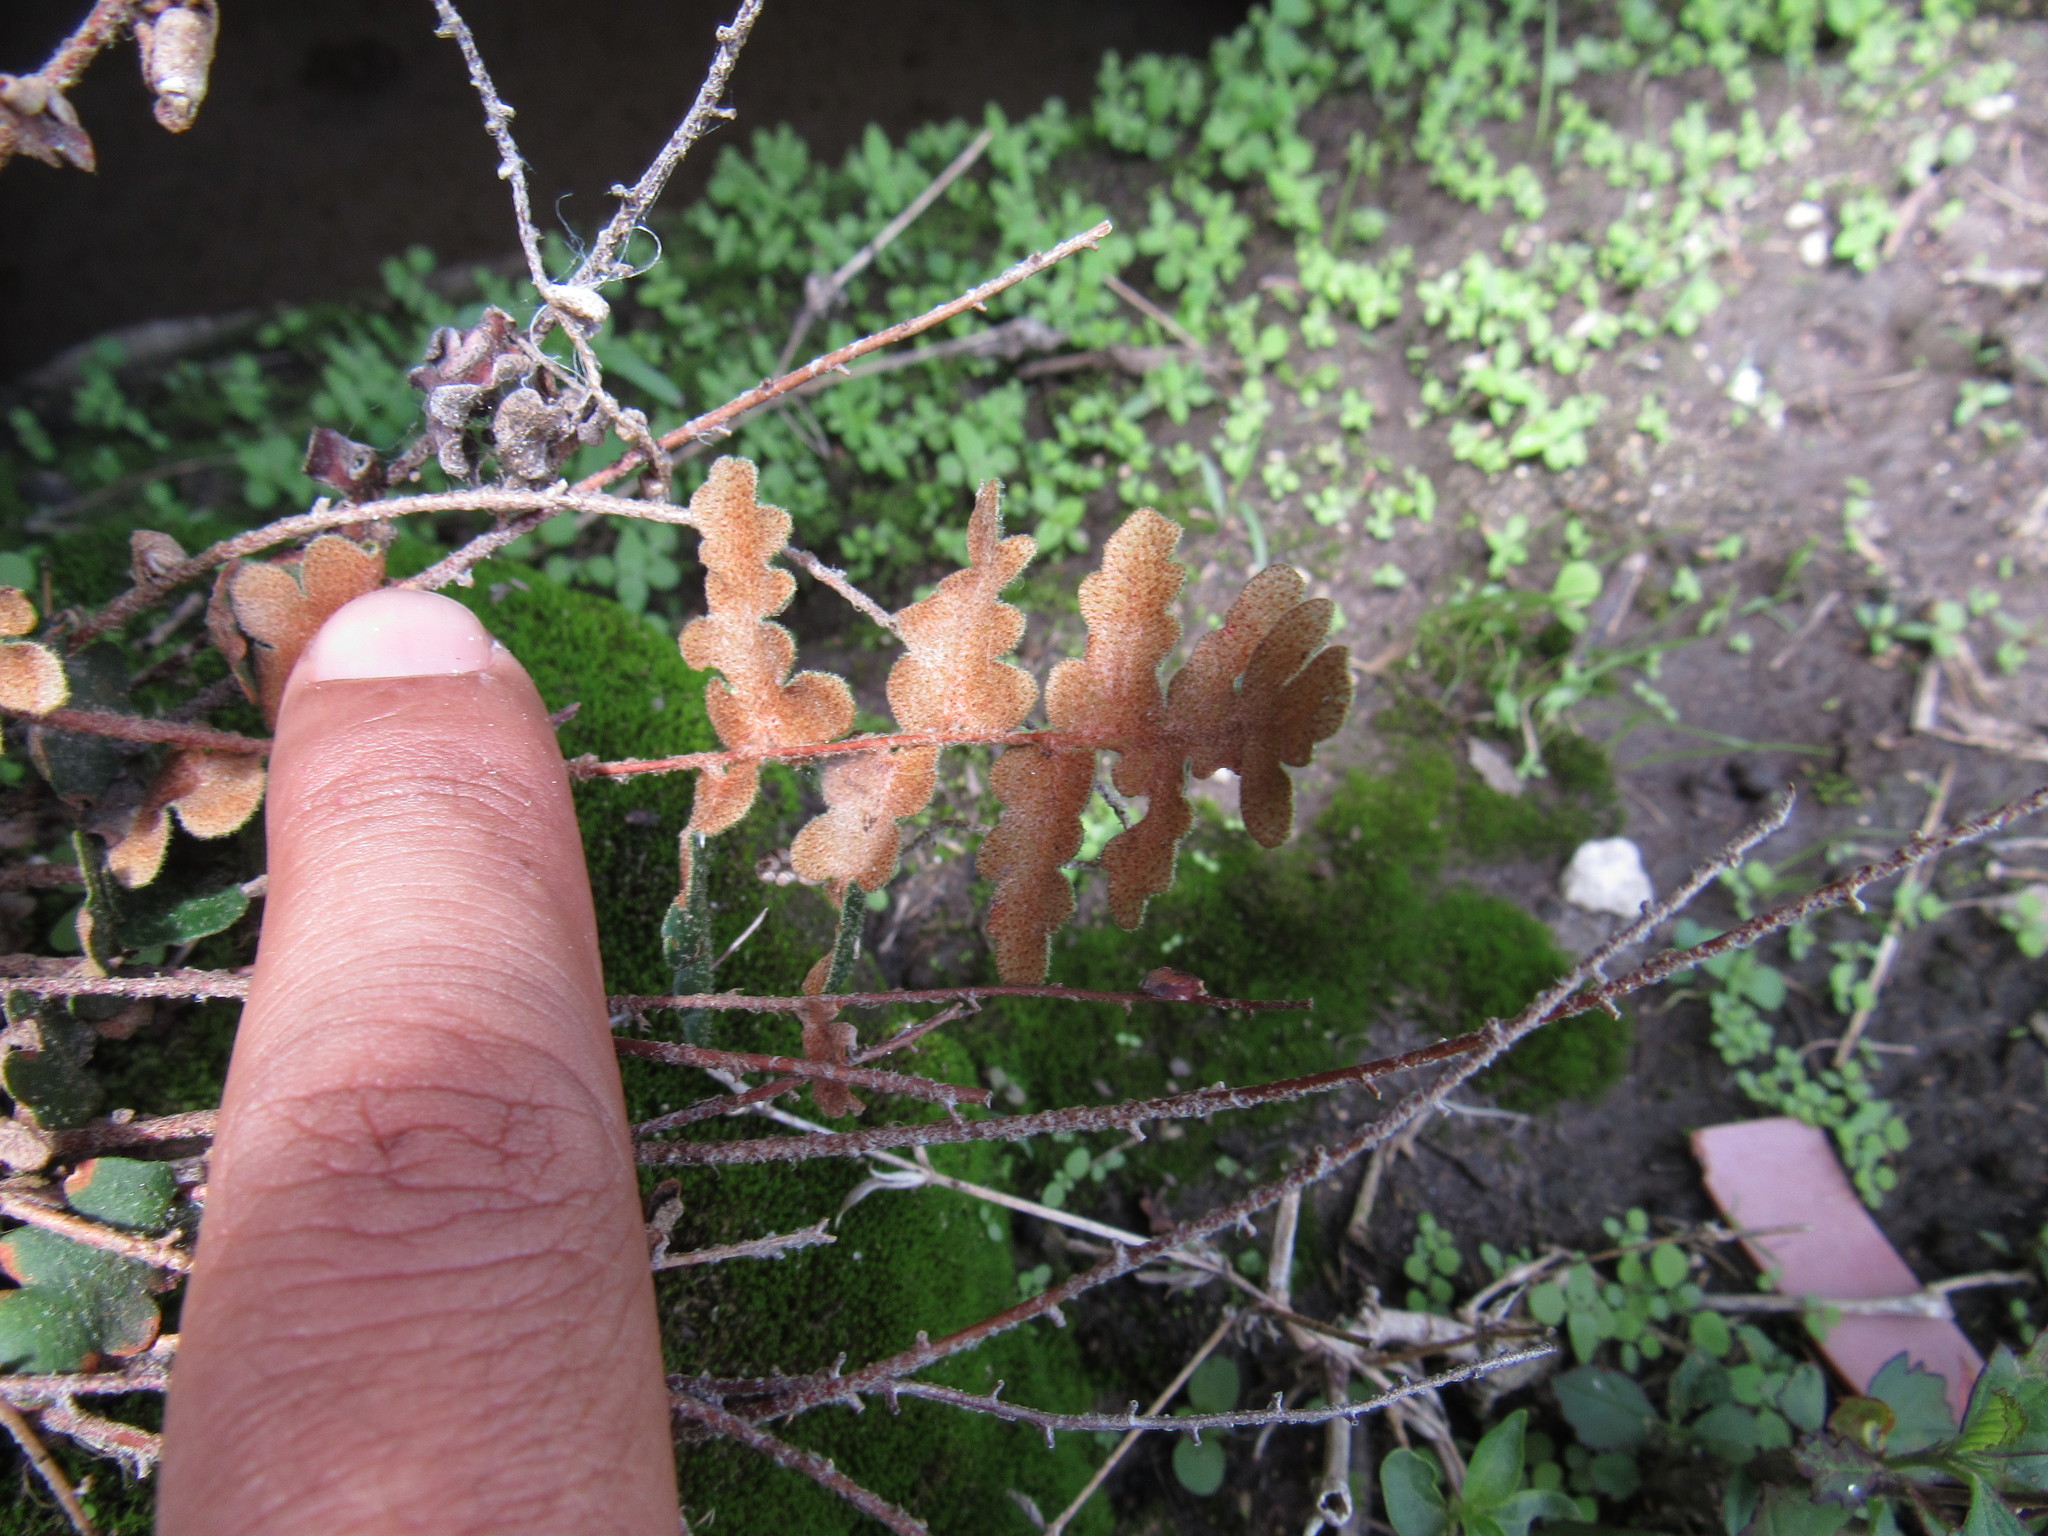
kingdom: Plantae
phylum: Tracheophyta
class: Polypodiopsida
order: Polypodiales
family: Pteridaceae
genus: Astrolepis
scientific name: Astrolepis sinuata
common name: Wavy scaly cloakfern
